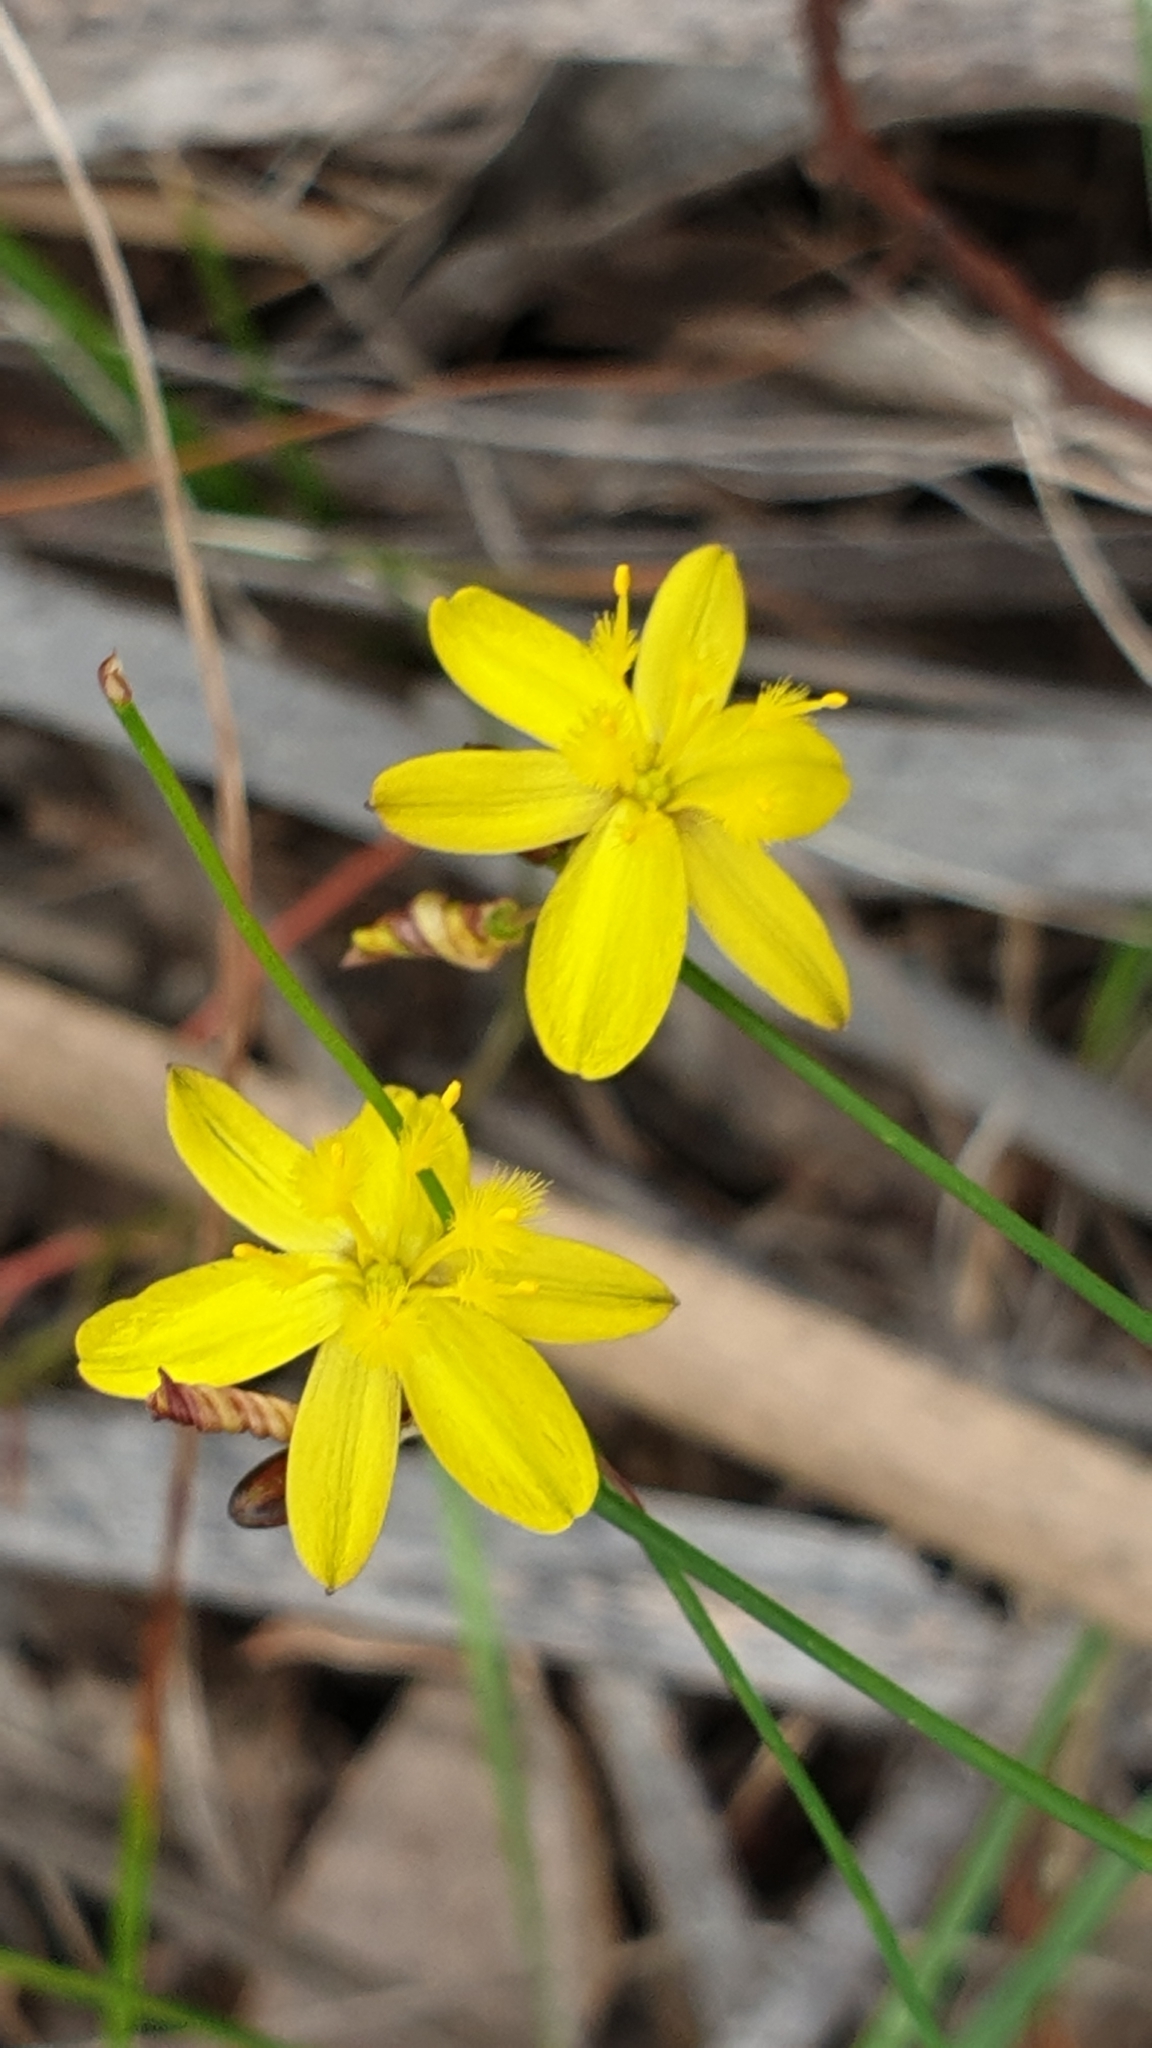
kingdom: Plantae
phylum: Tracheophyta
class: Liliopsida
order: Asparagales
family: Asphodelaceae
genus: Tricoryne
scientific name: Tricoryne elatior
